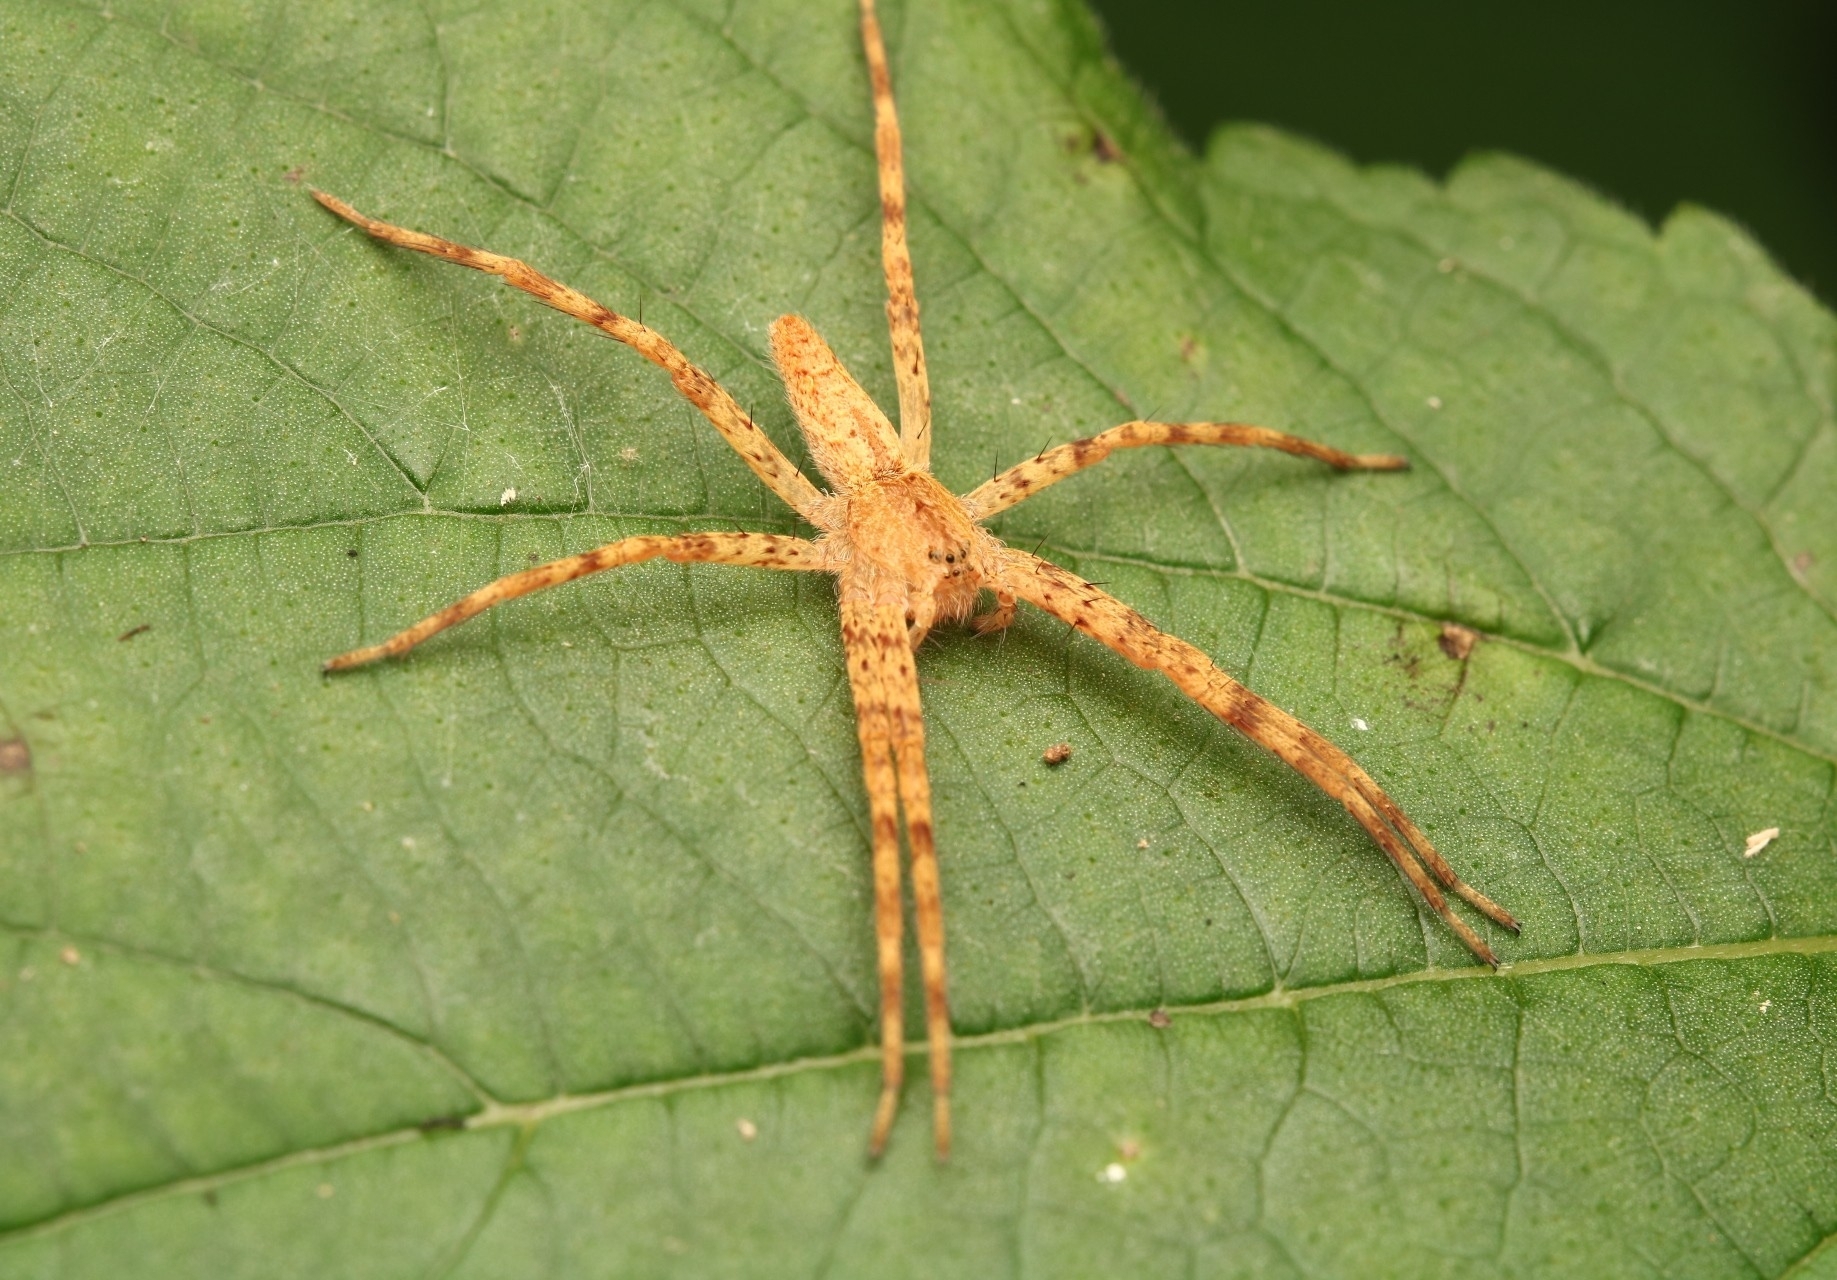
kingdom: Animalia
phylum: Arthropoda
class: Arachnida
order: Araneae
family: Pisauridae
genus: Pisaurina
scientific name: Pisaurina mira
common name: American nursery web spider
